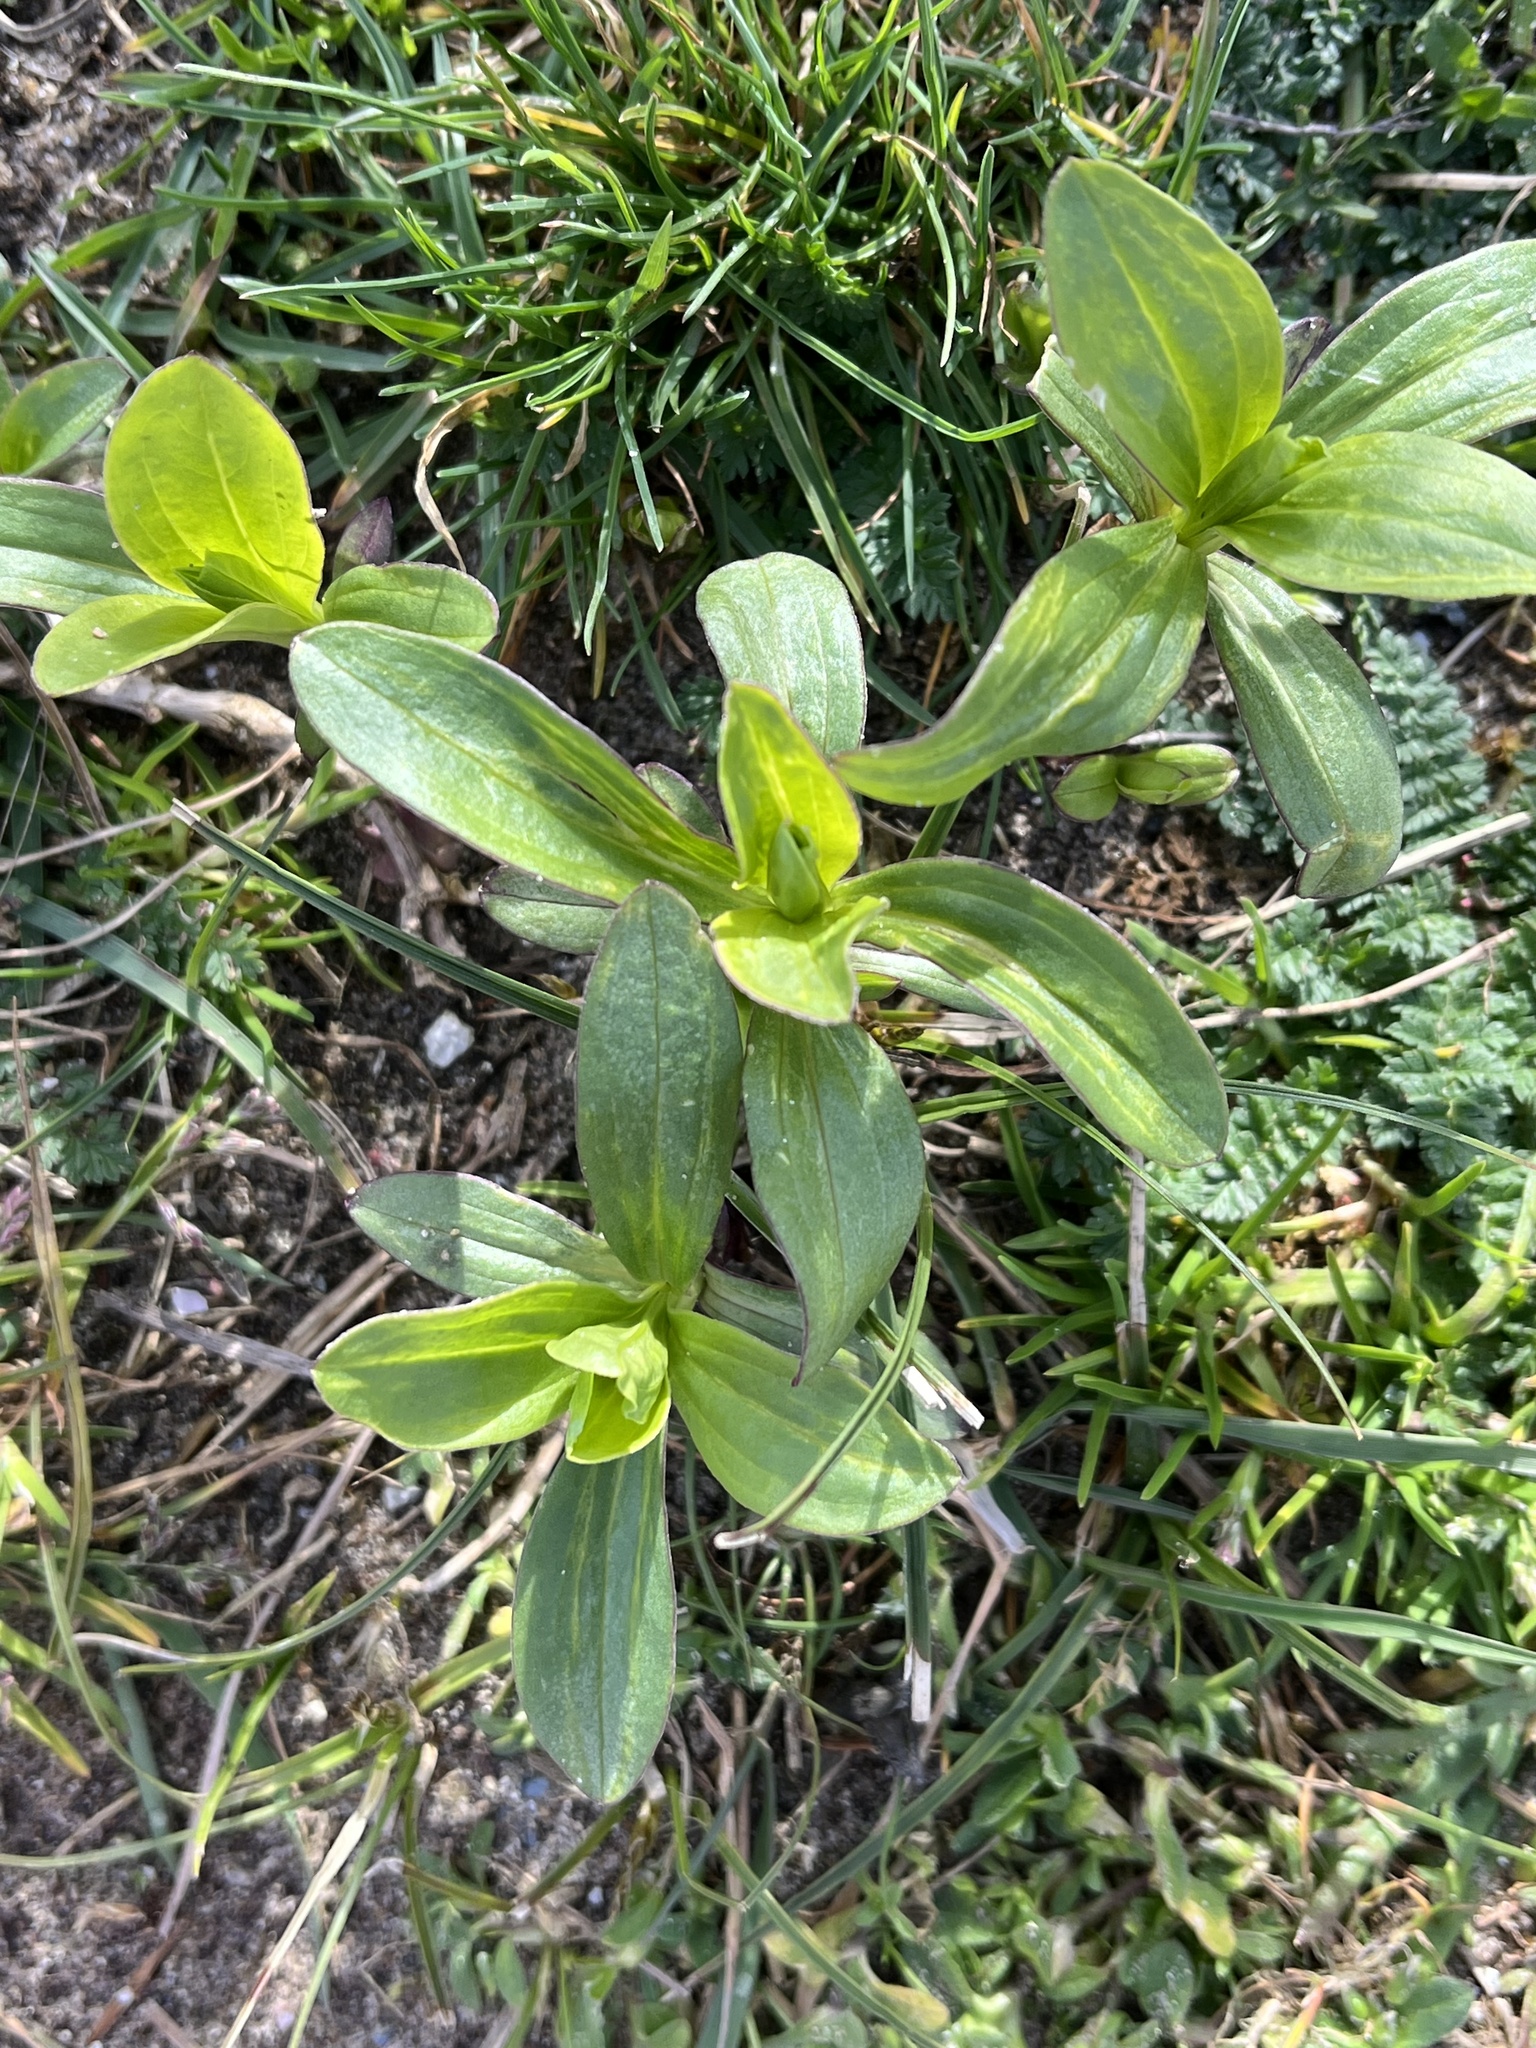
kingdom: Plantae
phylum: Tracheophyta
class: Magnoliopsida
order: Caryophyllales
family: Caryophyllaceae
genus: Saponaria
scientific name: Saponaria officinalis
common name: Soapwort
